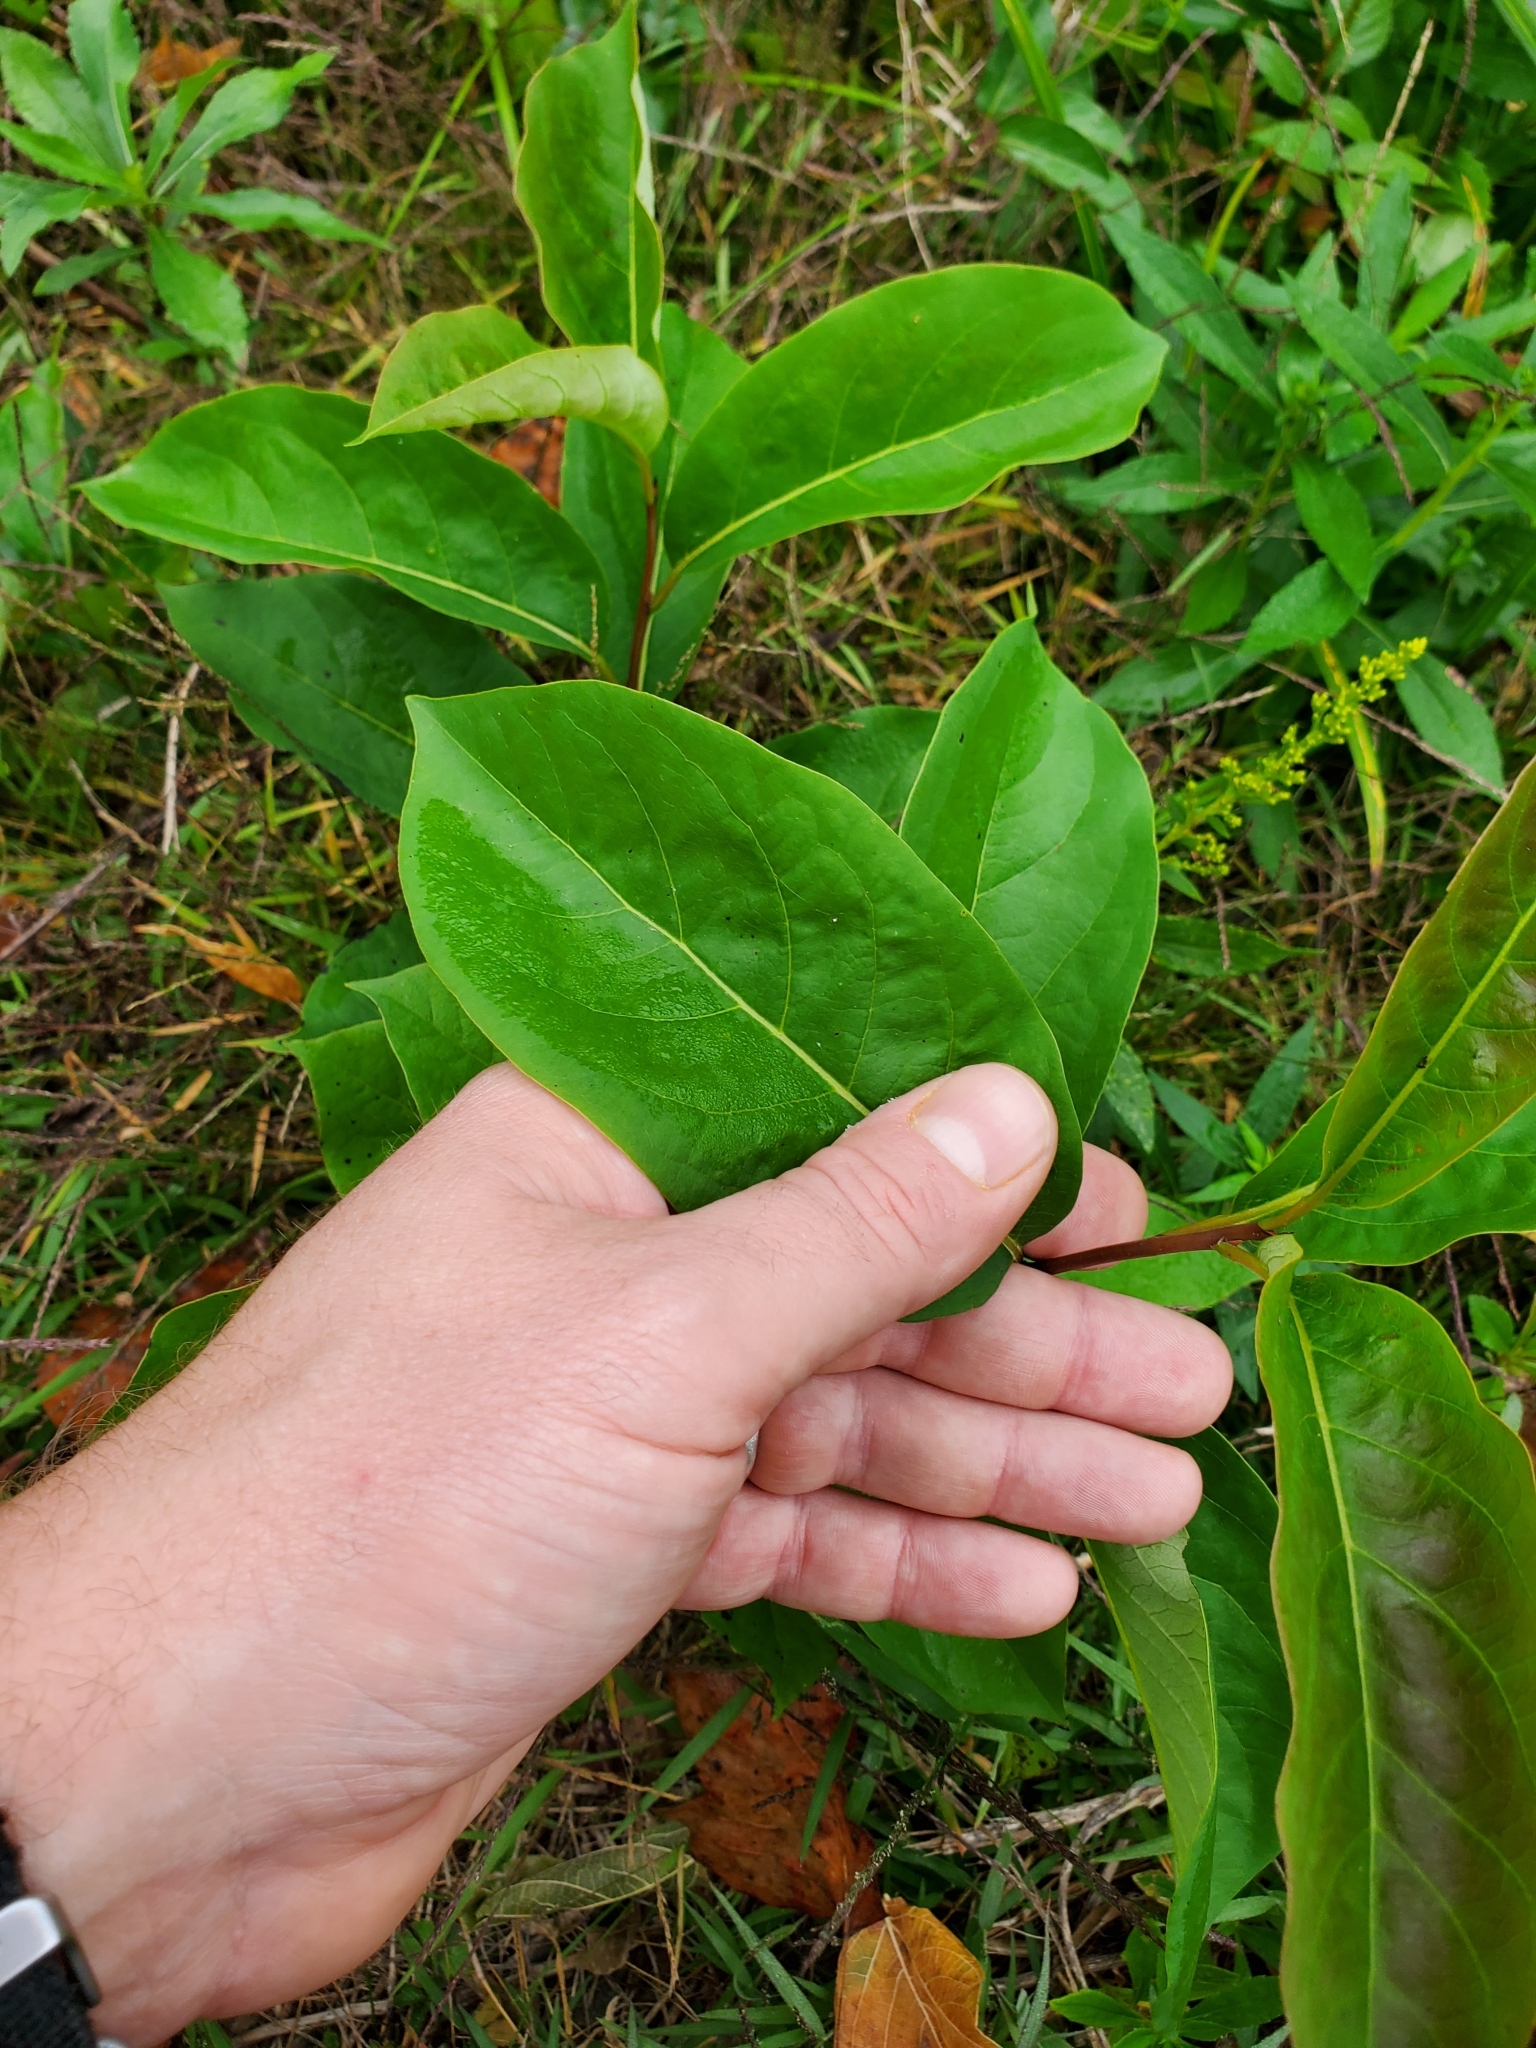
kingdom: Plantae
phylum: Tracheophyta
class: Magnoliopsida
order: Ericales
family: Ebenaceae
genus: Diospyros
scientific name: Diospyros virginiana
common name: Persimmon
